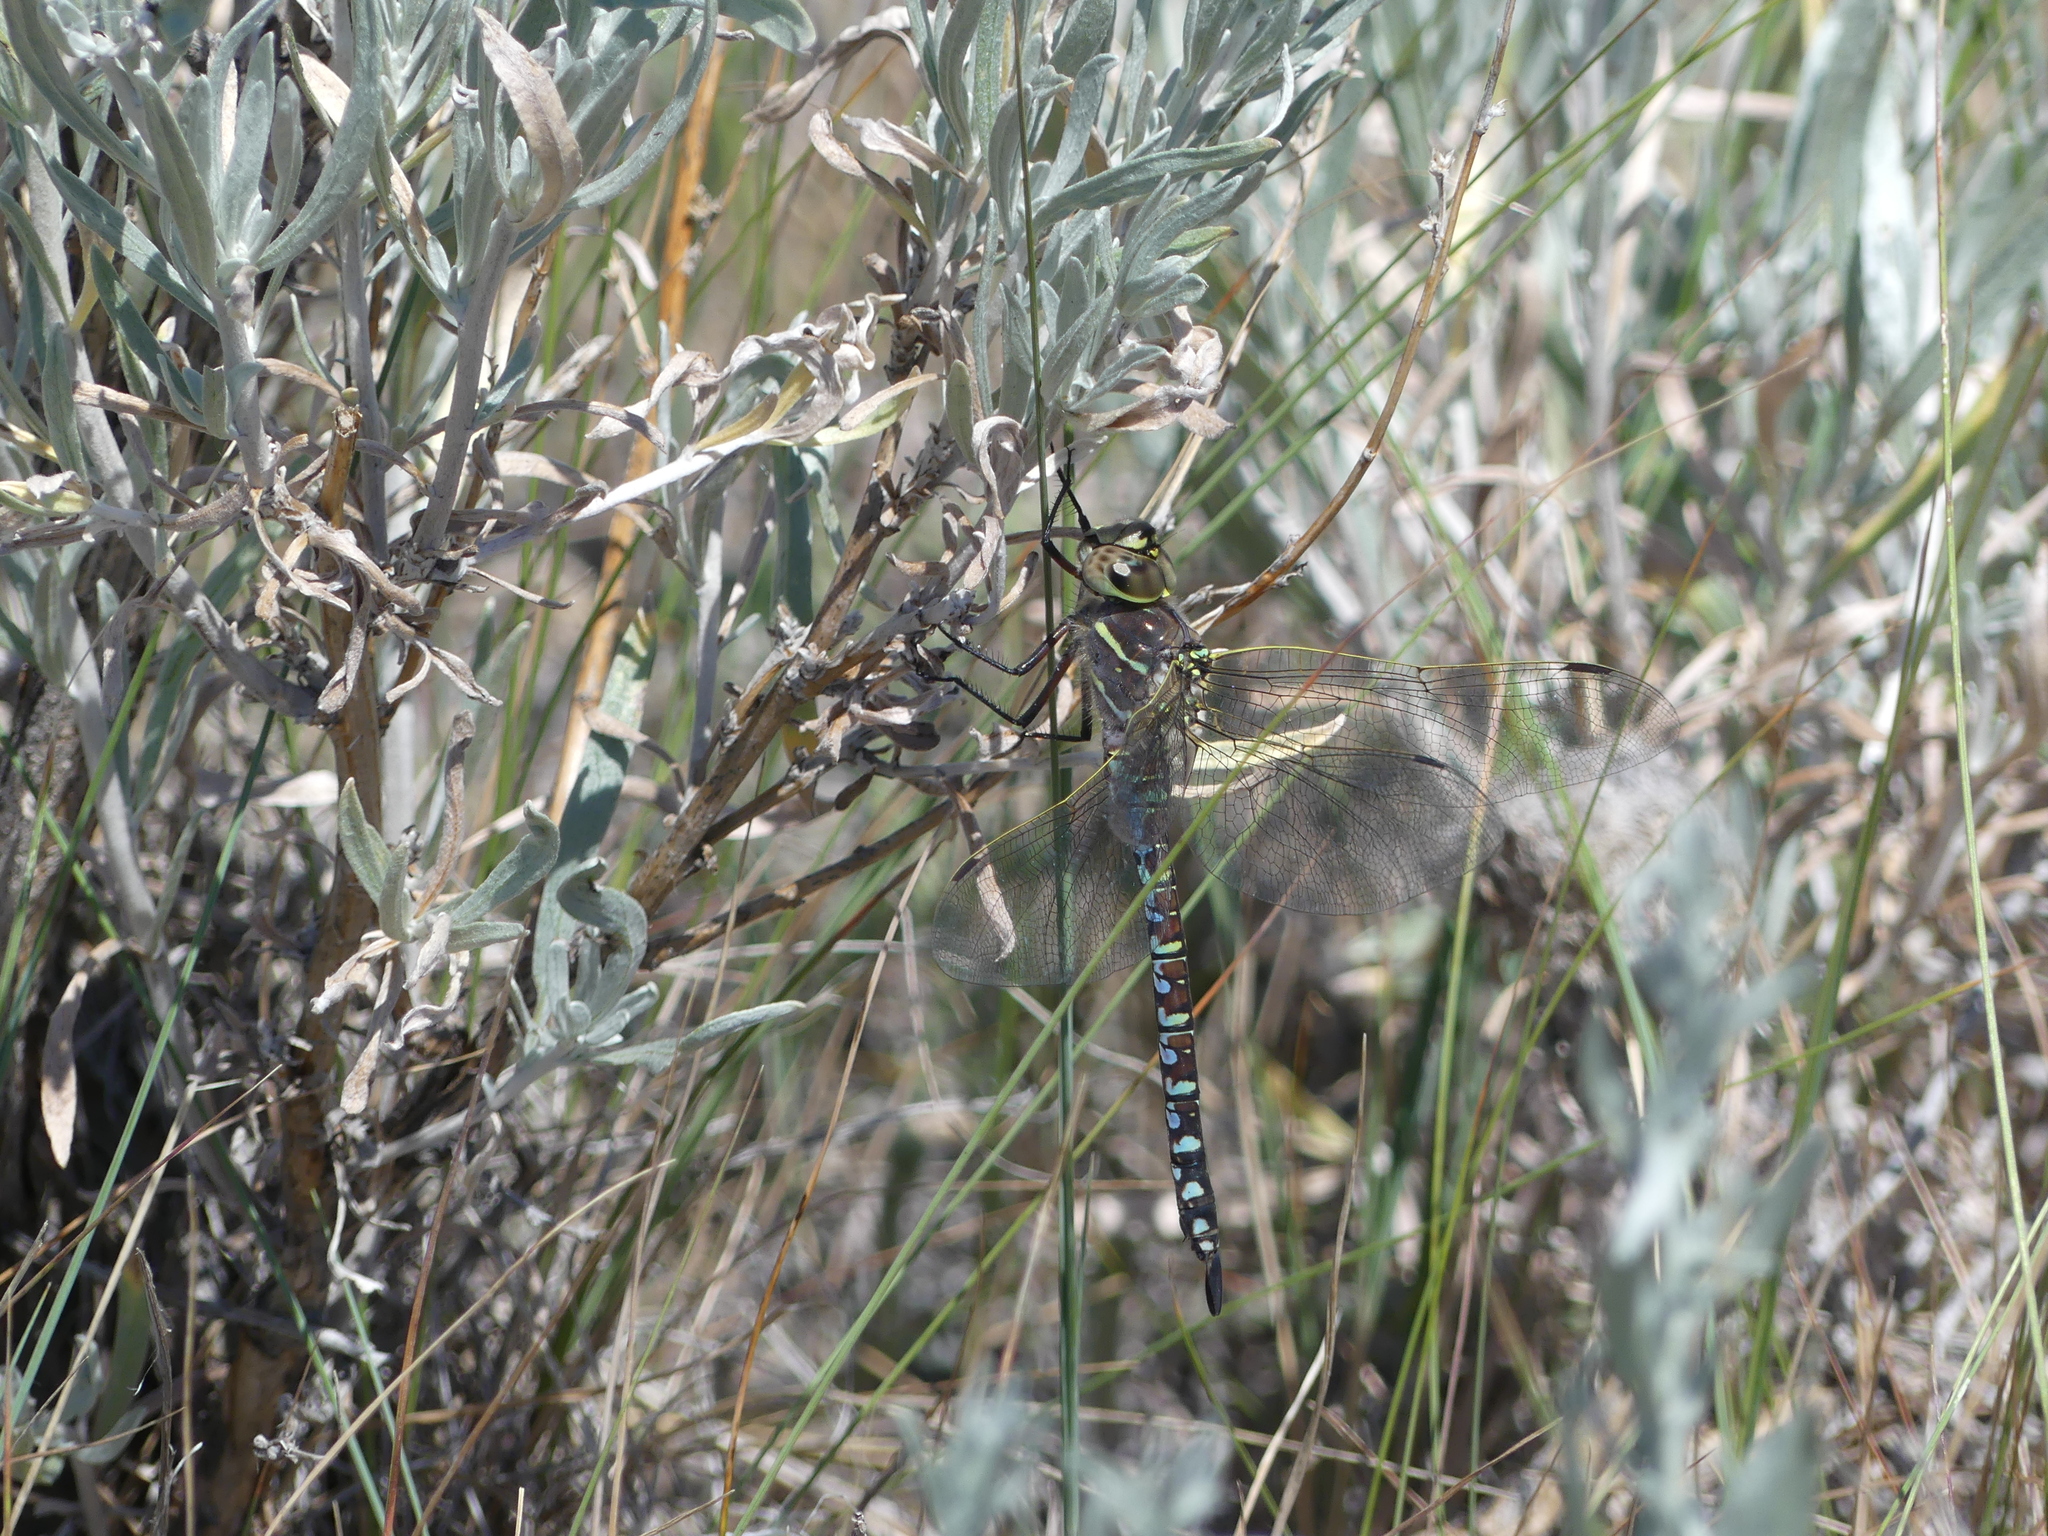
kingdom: Animalia
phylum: Arthropoda
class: Insecta
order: Odonata
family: Aeshnidae
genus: Aeshna
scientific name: Aeshna interrupta
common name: Variable darner
